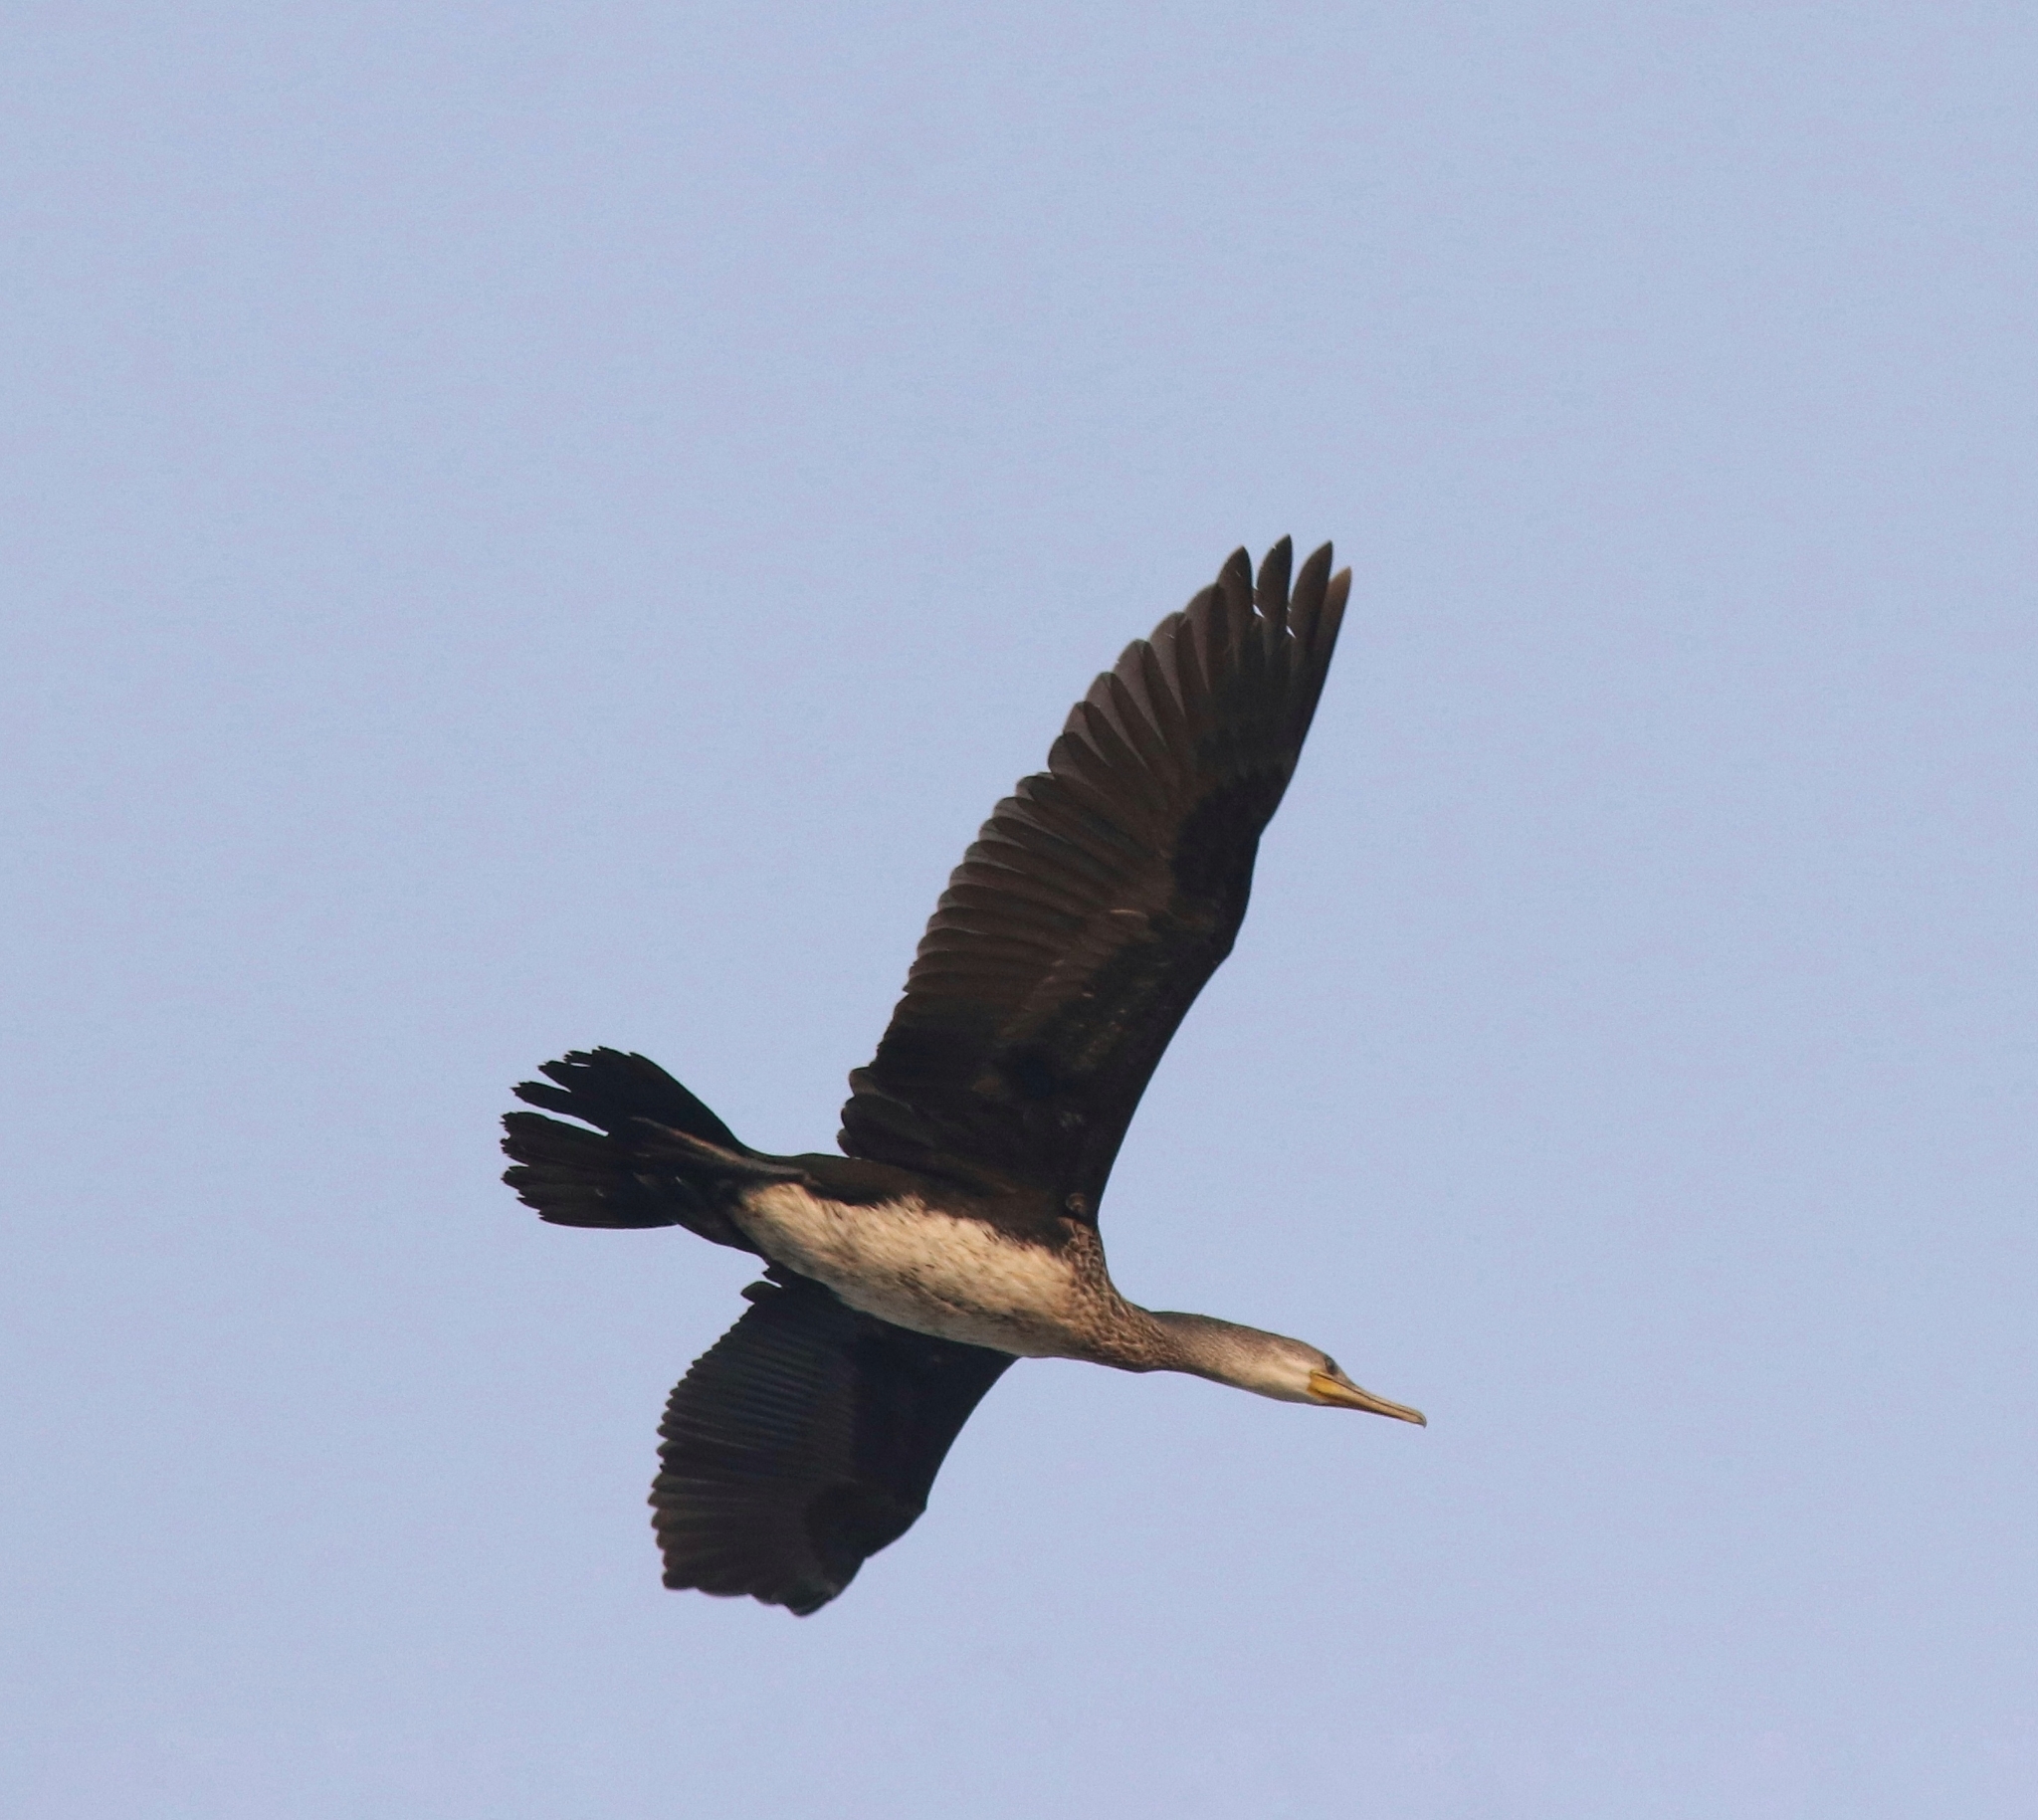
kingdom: Animalia
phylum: Chordata
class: Aves
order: Suliformes
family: Phalacrocoracidae
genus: Phalacrocorax
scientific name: Phalacrocorax fuscicollis
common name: Indian cormorant
